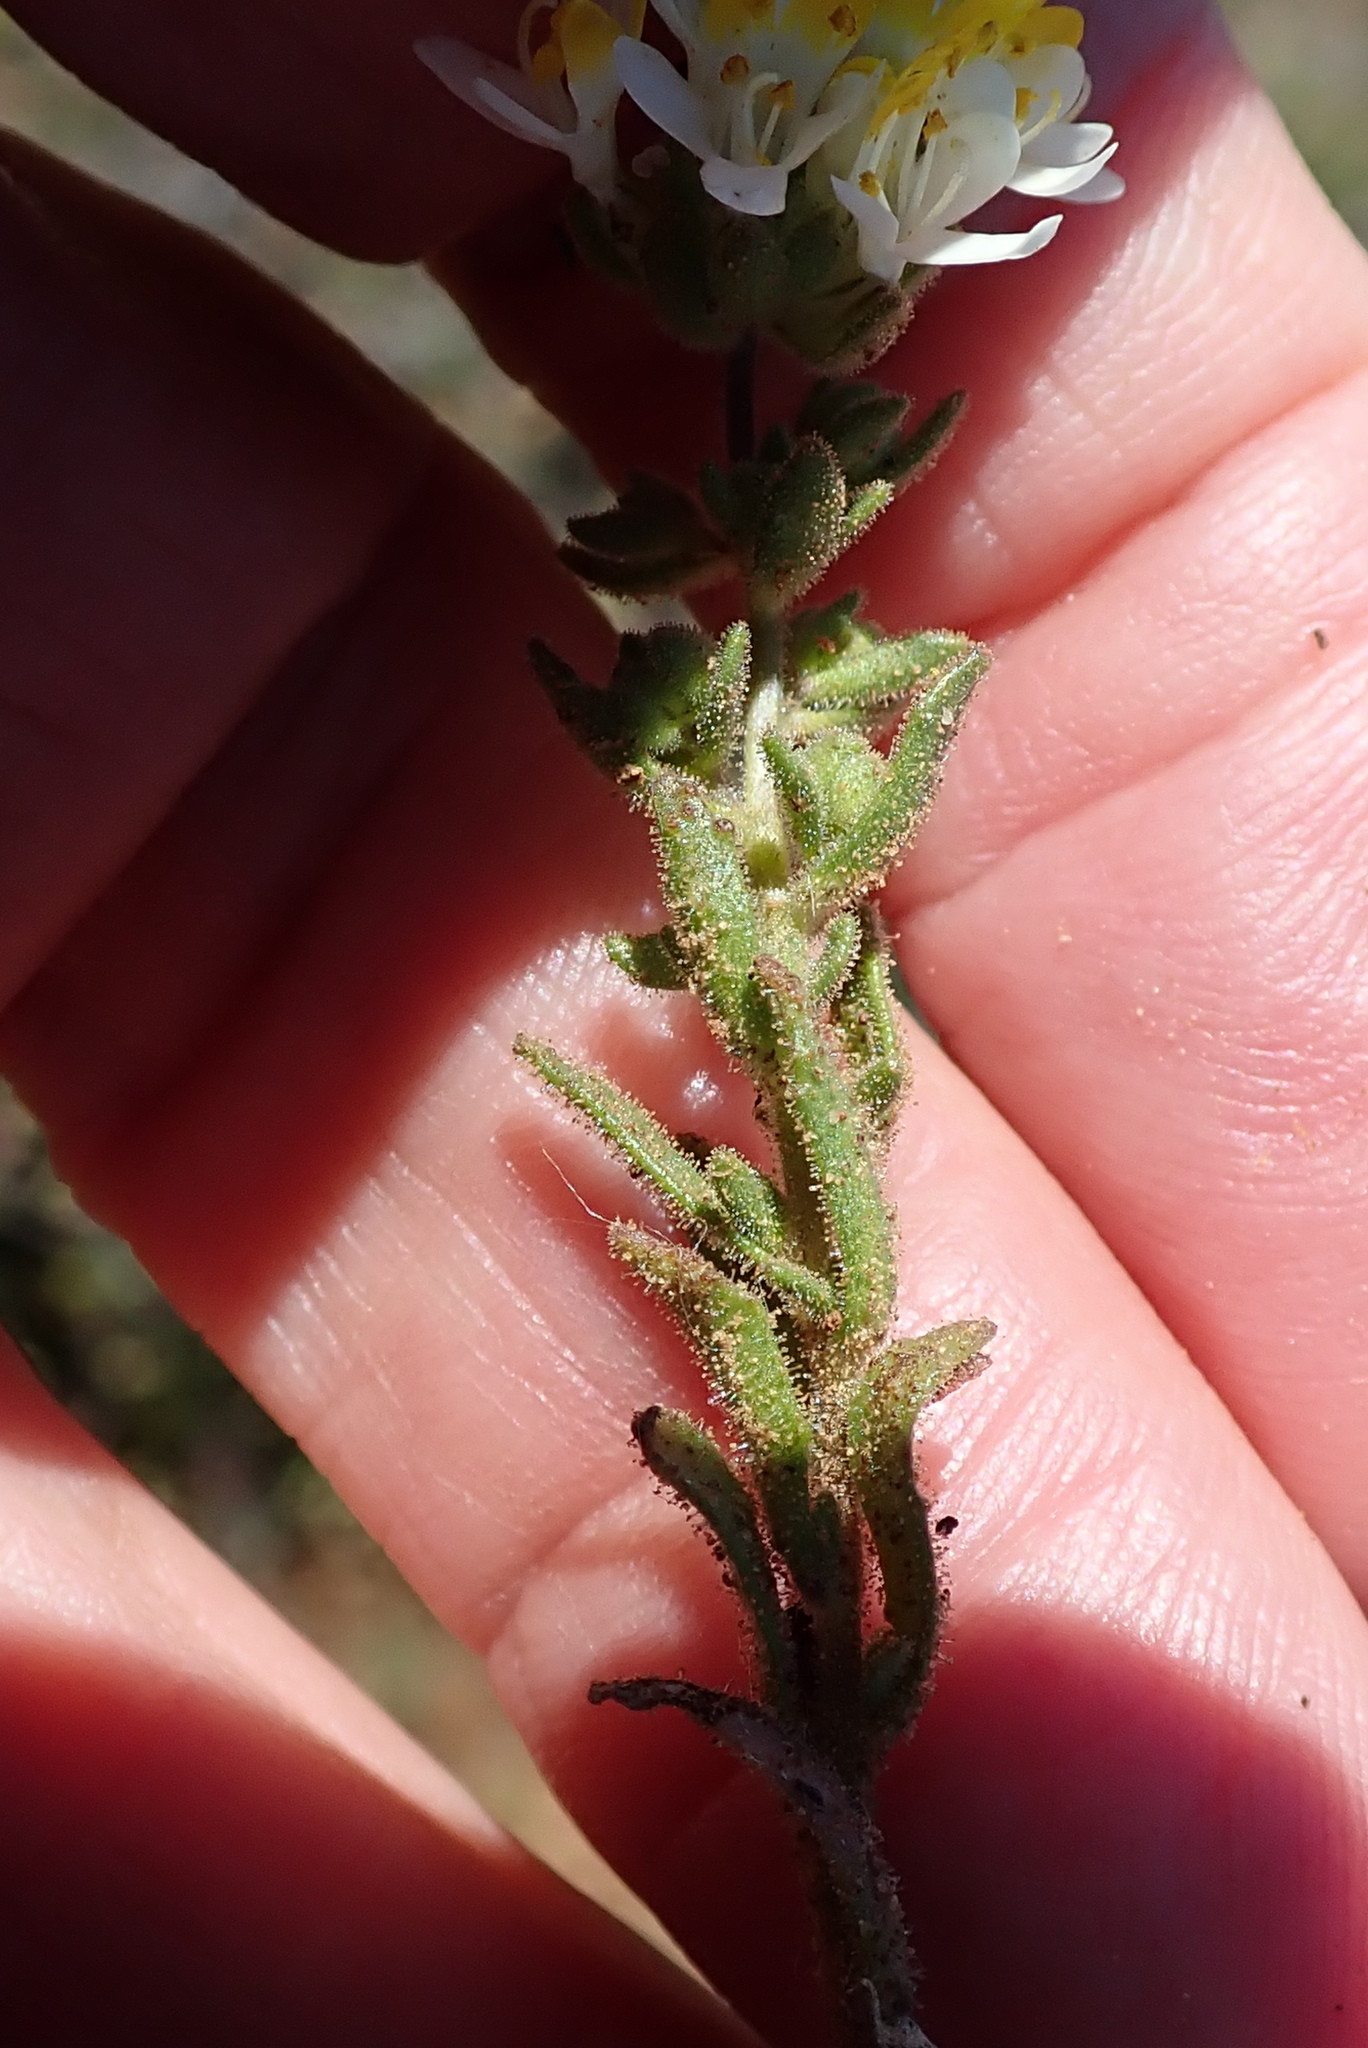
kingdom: Plantae
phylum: Tracheophyta
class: Magnoliopsida
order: Lamiales
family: Scrophulariaceae
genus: Polycarena
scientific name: Polycarena aurea
